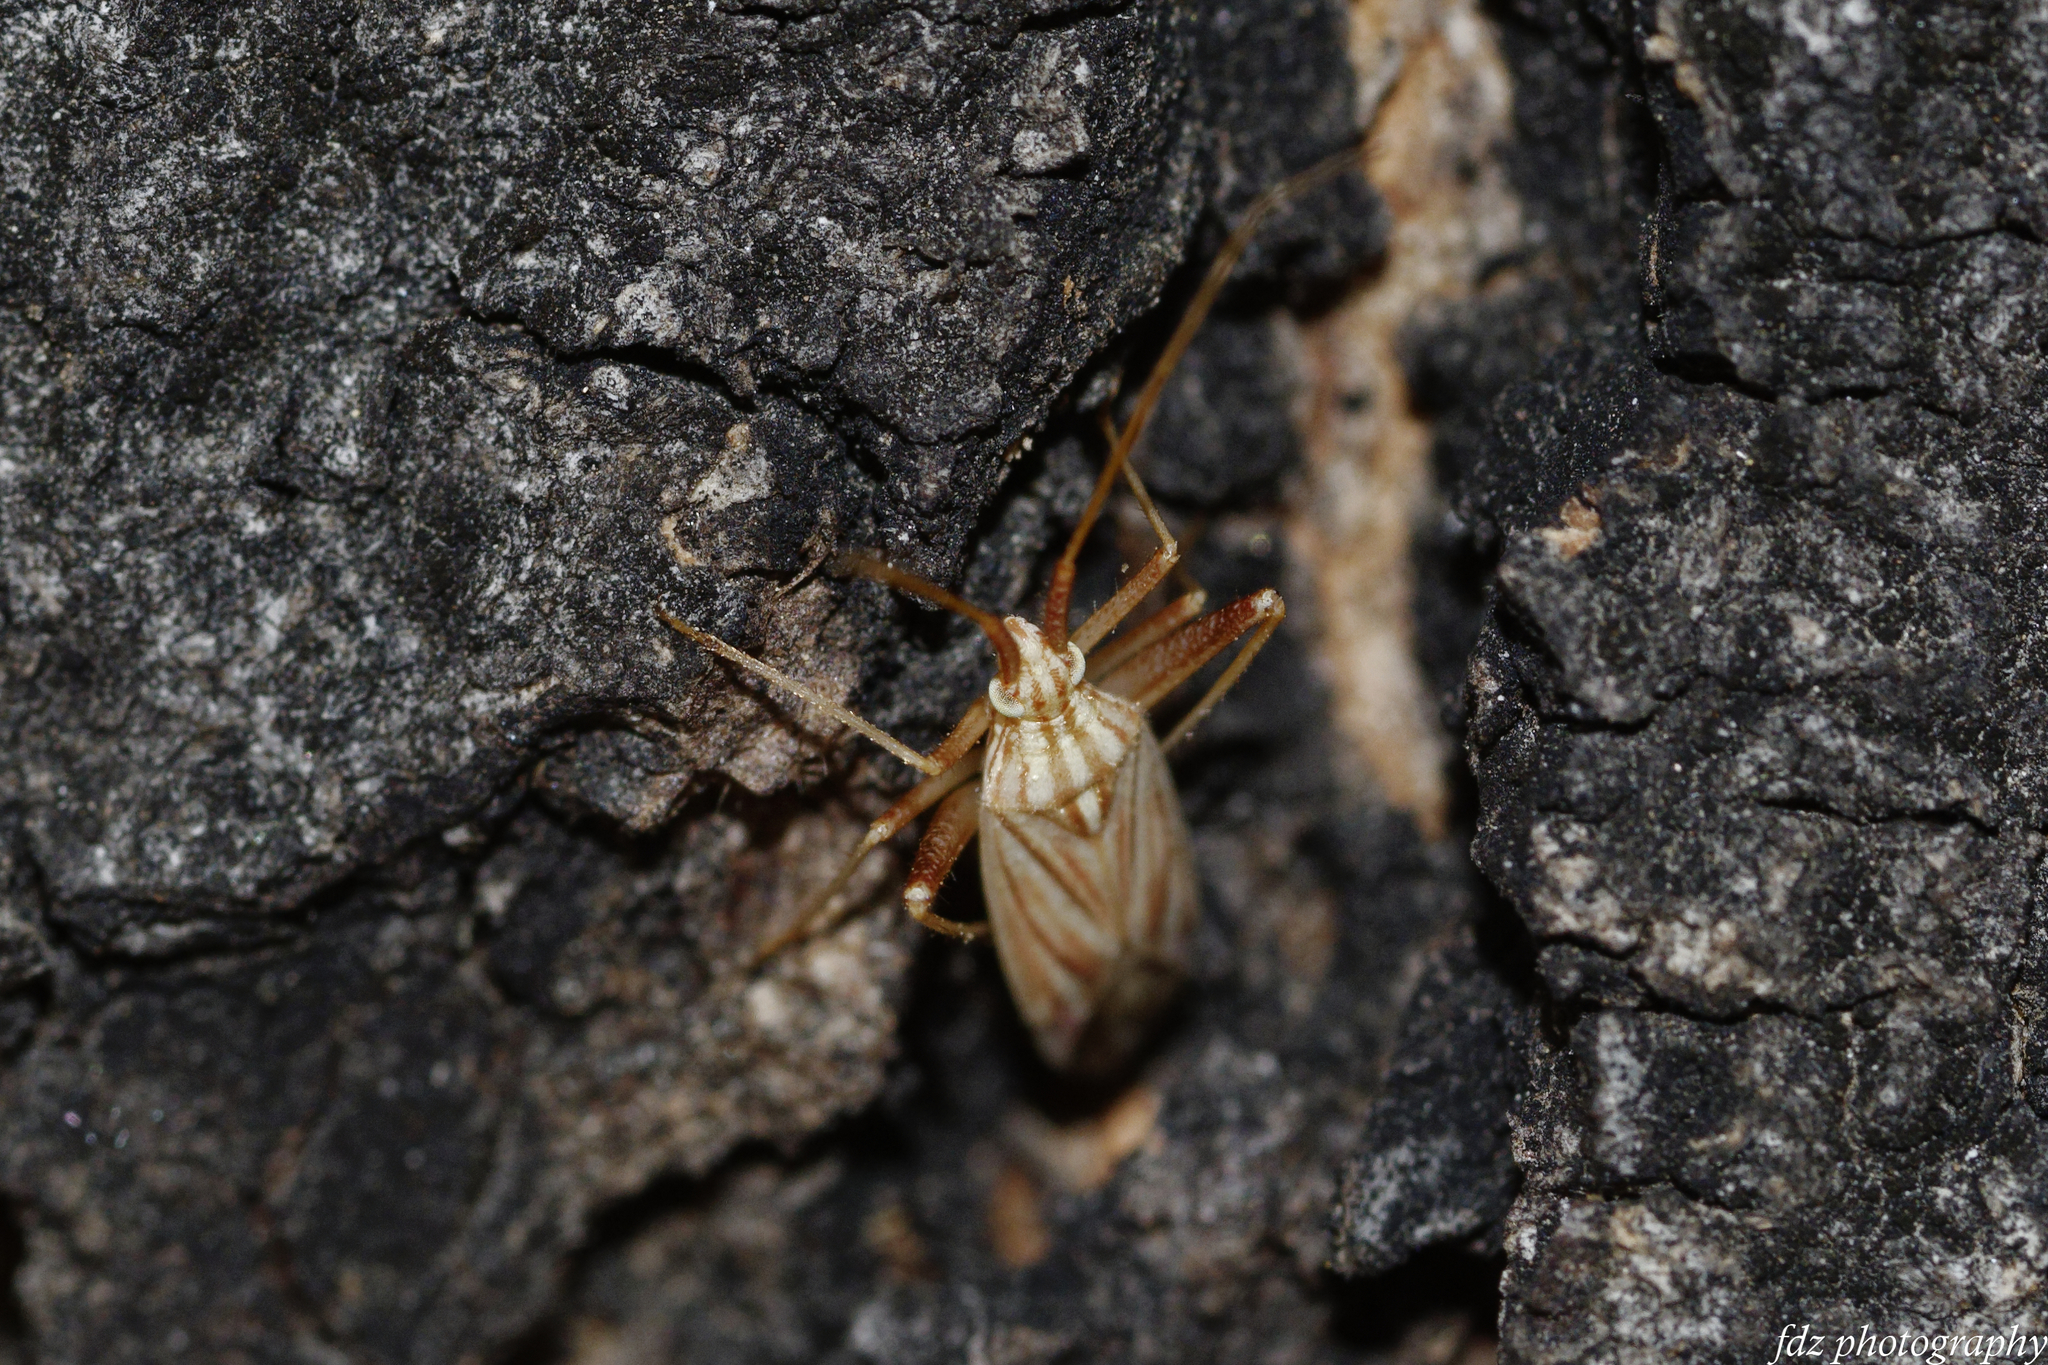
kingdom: Animalia
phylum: Arthropoda
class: Insecta
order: Hemiptera
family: Miridae
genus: Miridius
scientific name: Miridius quadrivirgatus
